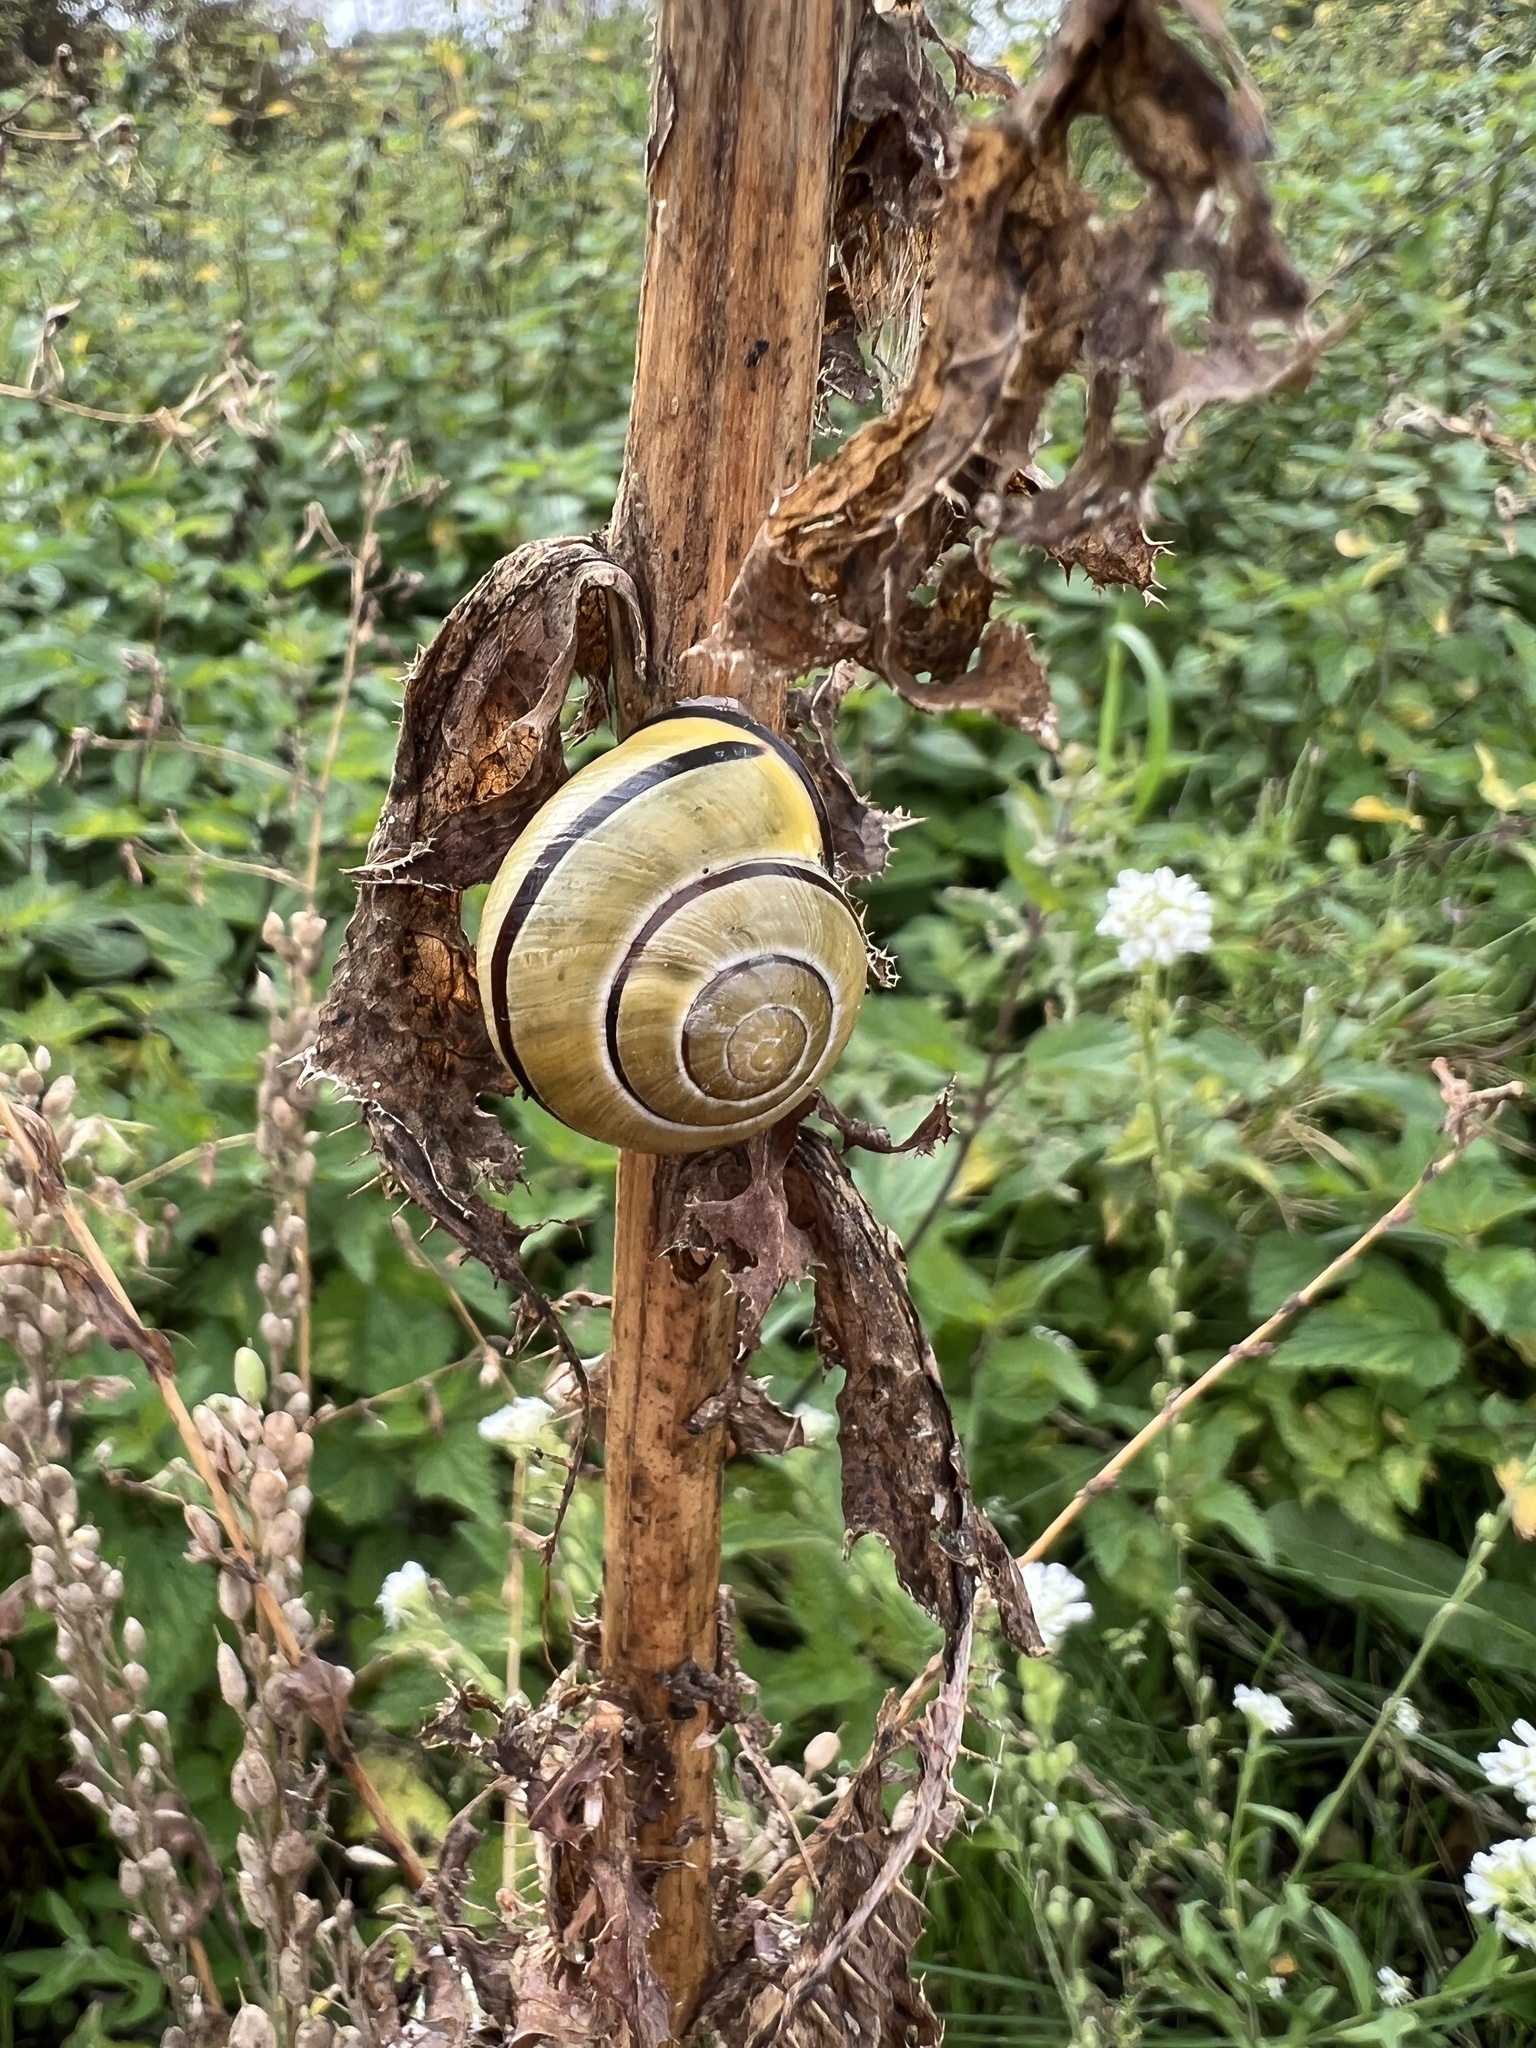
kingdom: Animalia
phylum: Mollusca
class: Gastropoda
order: Stylommatophora
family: Helicidae
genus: Cepaea
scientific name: Cepaea nemoralis
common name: Grovesnail
